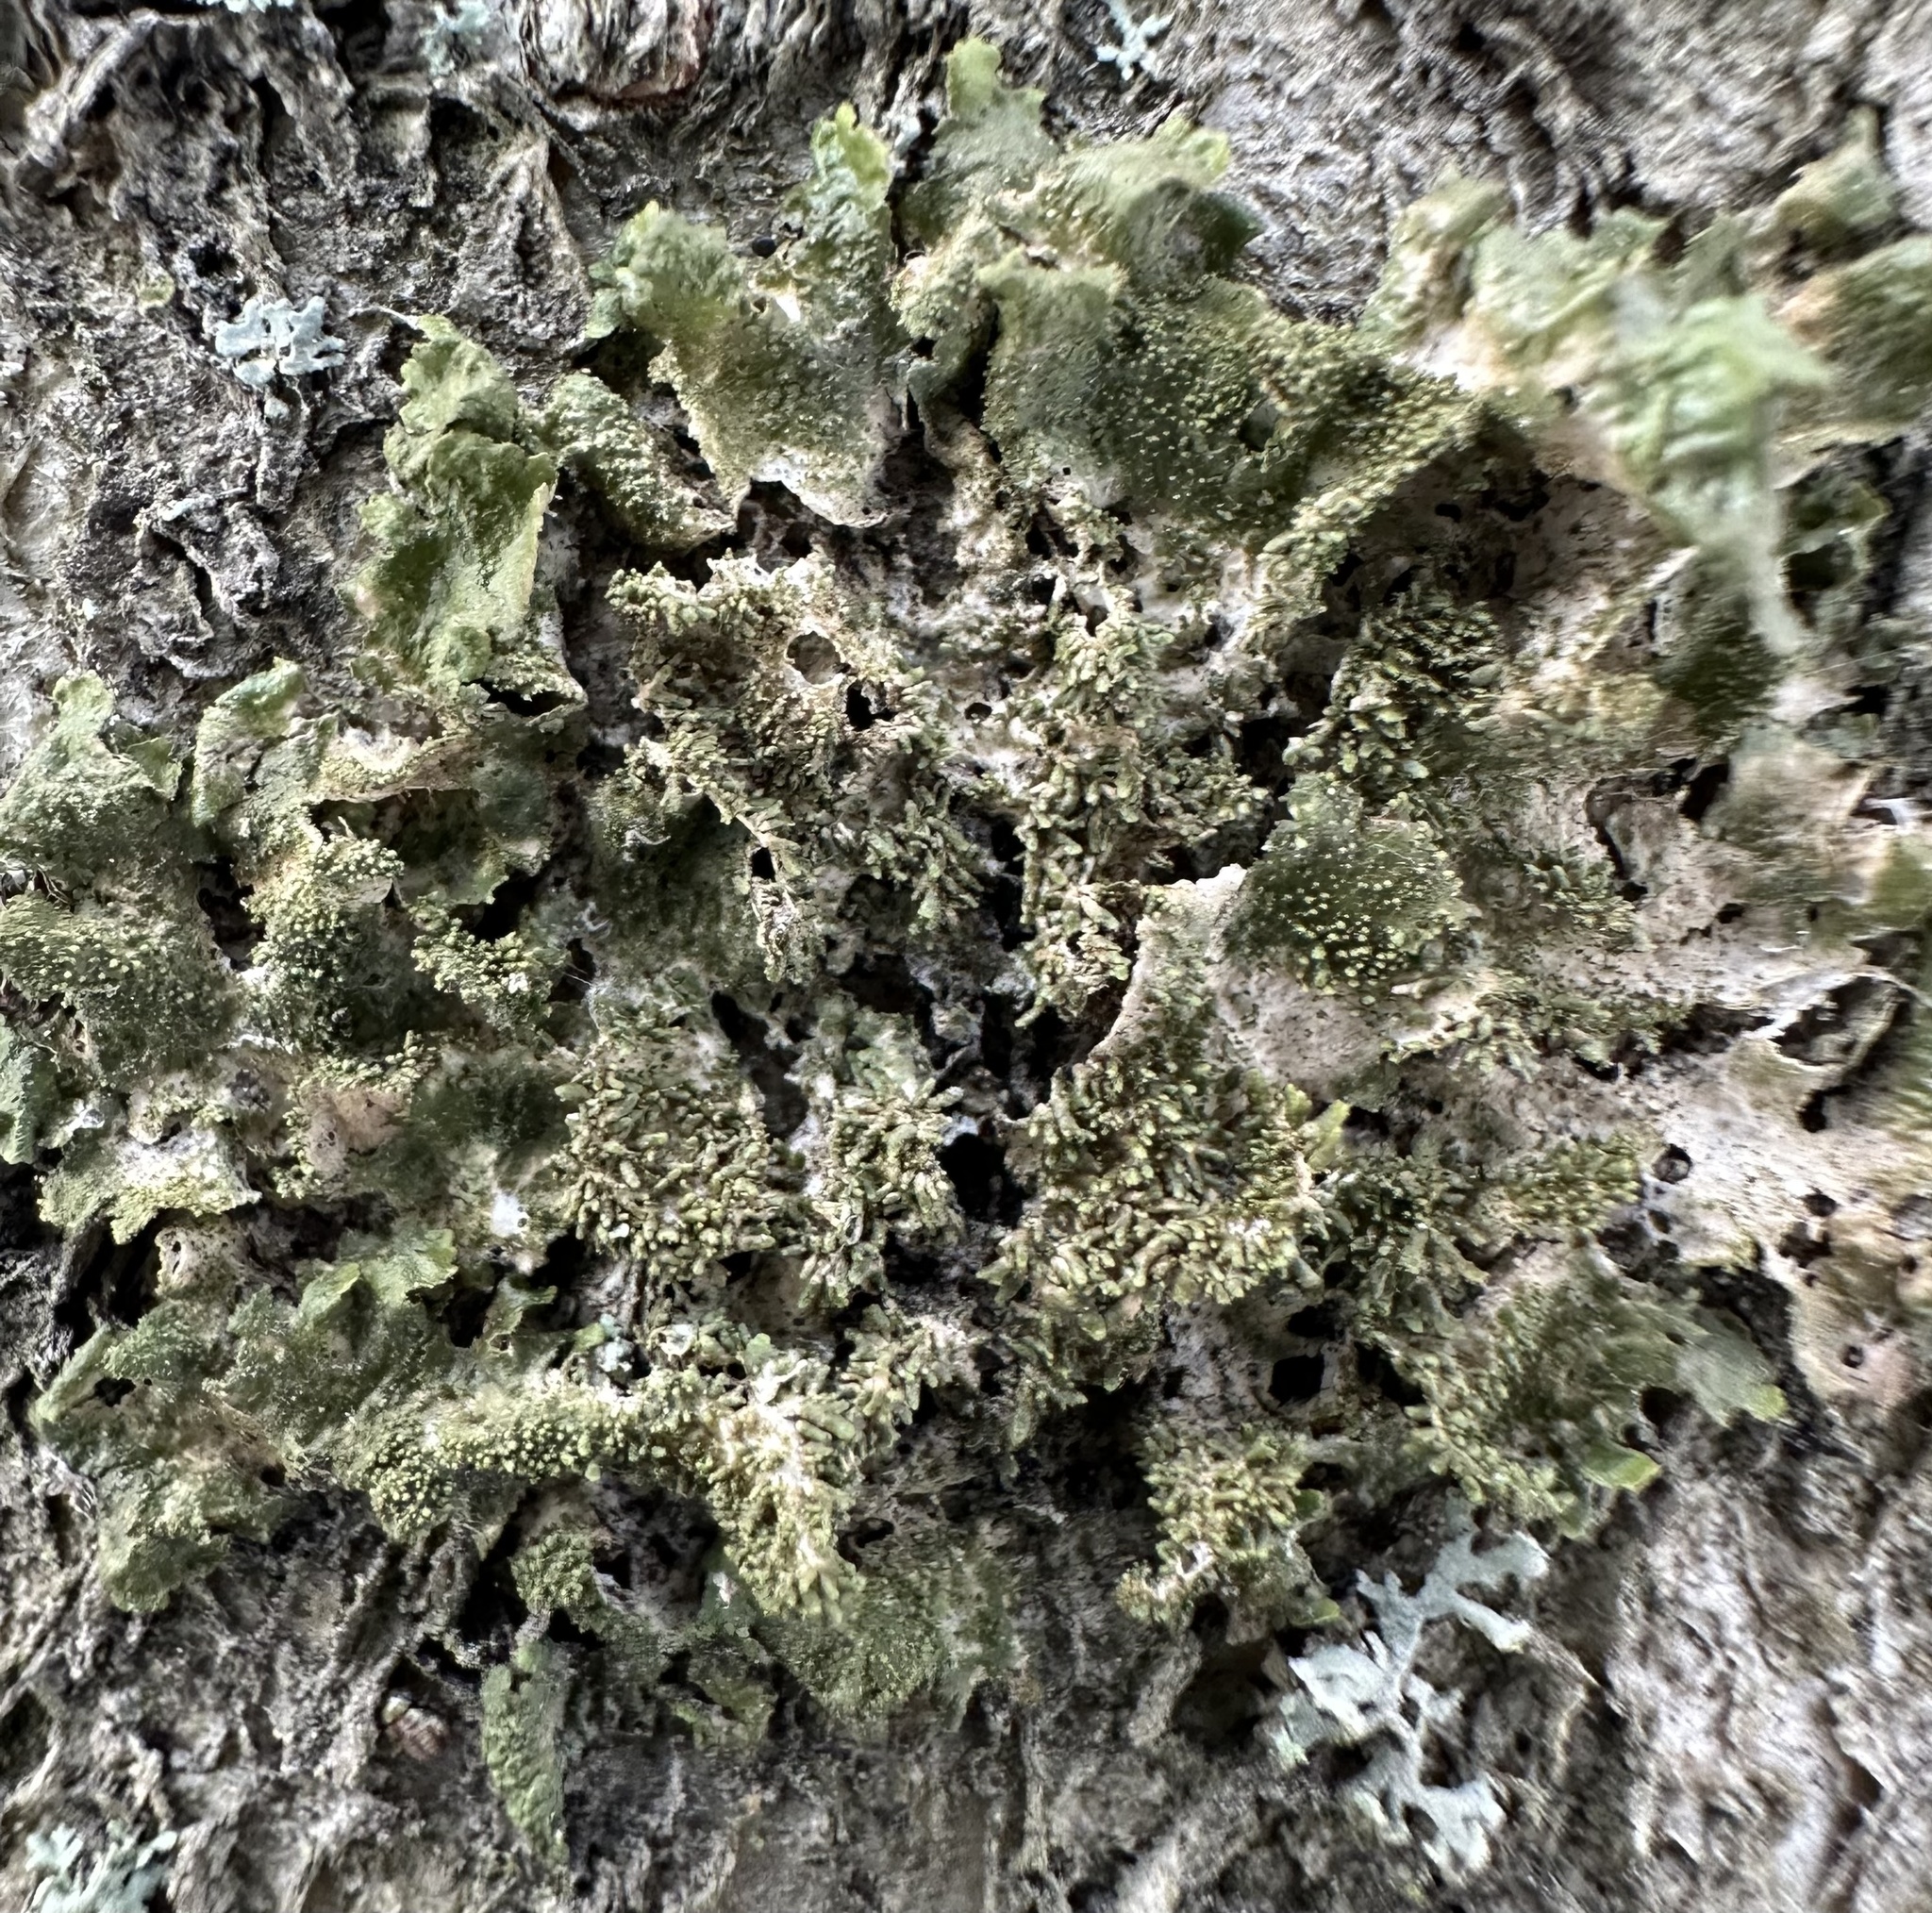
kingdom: Fungi
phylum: Ascomycota
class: Lecanoromycetes
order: Lecanorales
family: Parmeliaceae
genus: Melanohalea
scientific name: Melanohalea exasperatula
